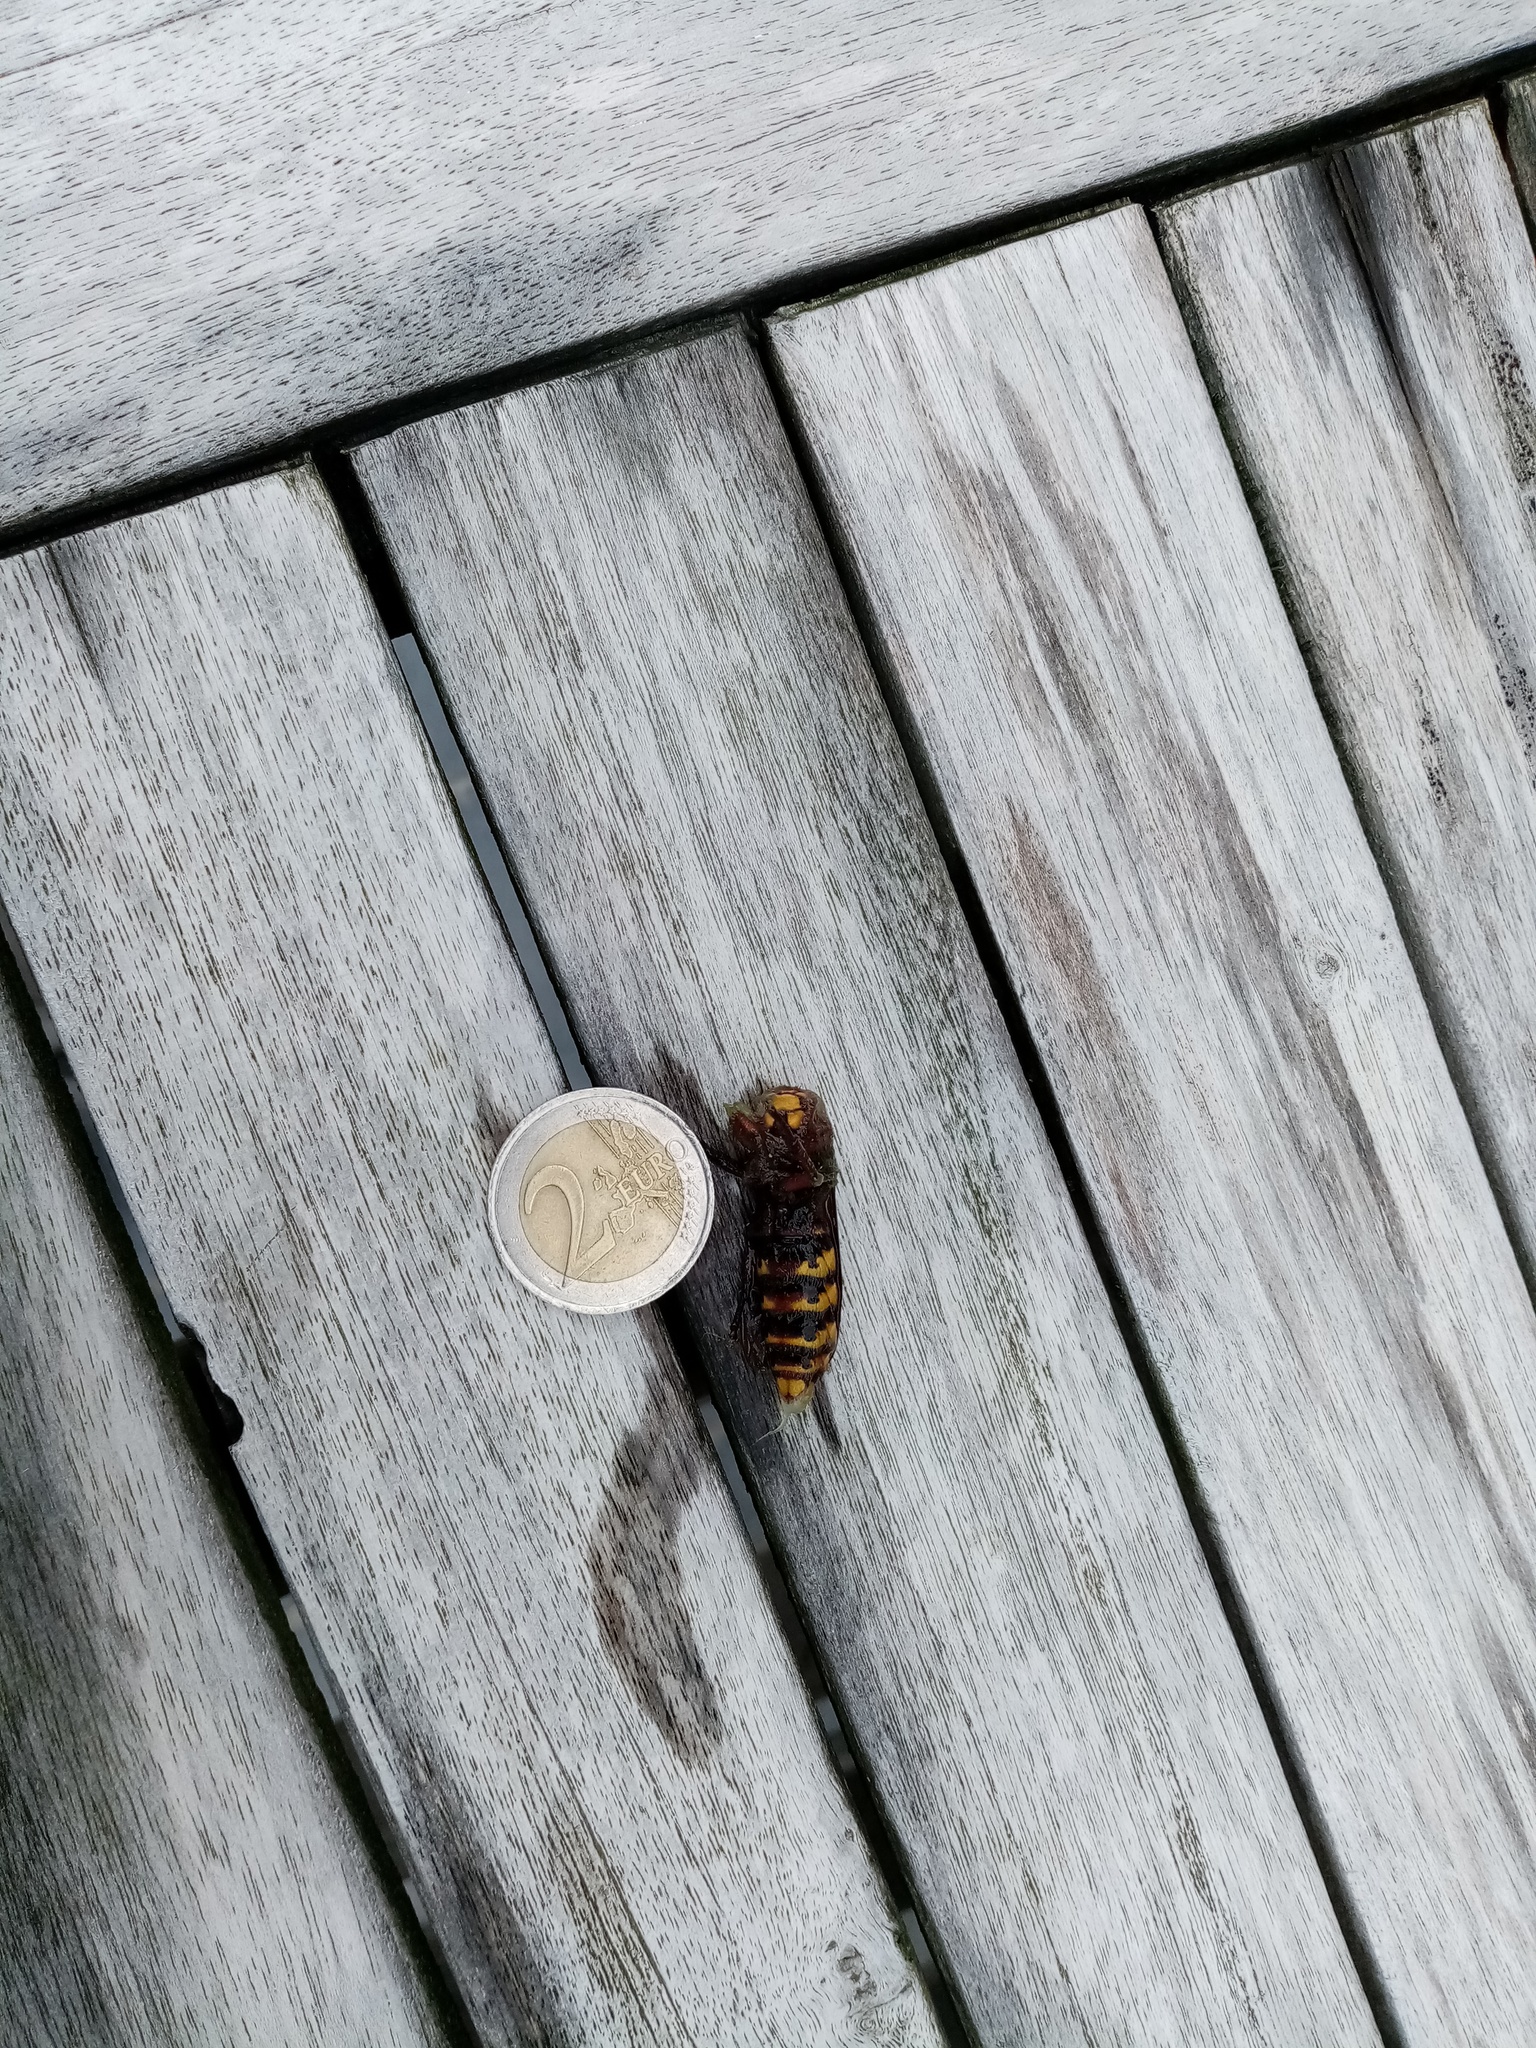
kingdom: Animalia
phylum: Arthropoda
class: Insecta
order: Hymenoptera
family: Vespidae
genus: Vespa
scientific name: Vespa crabro
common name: Hornet
